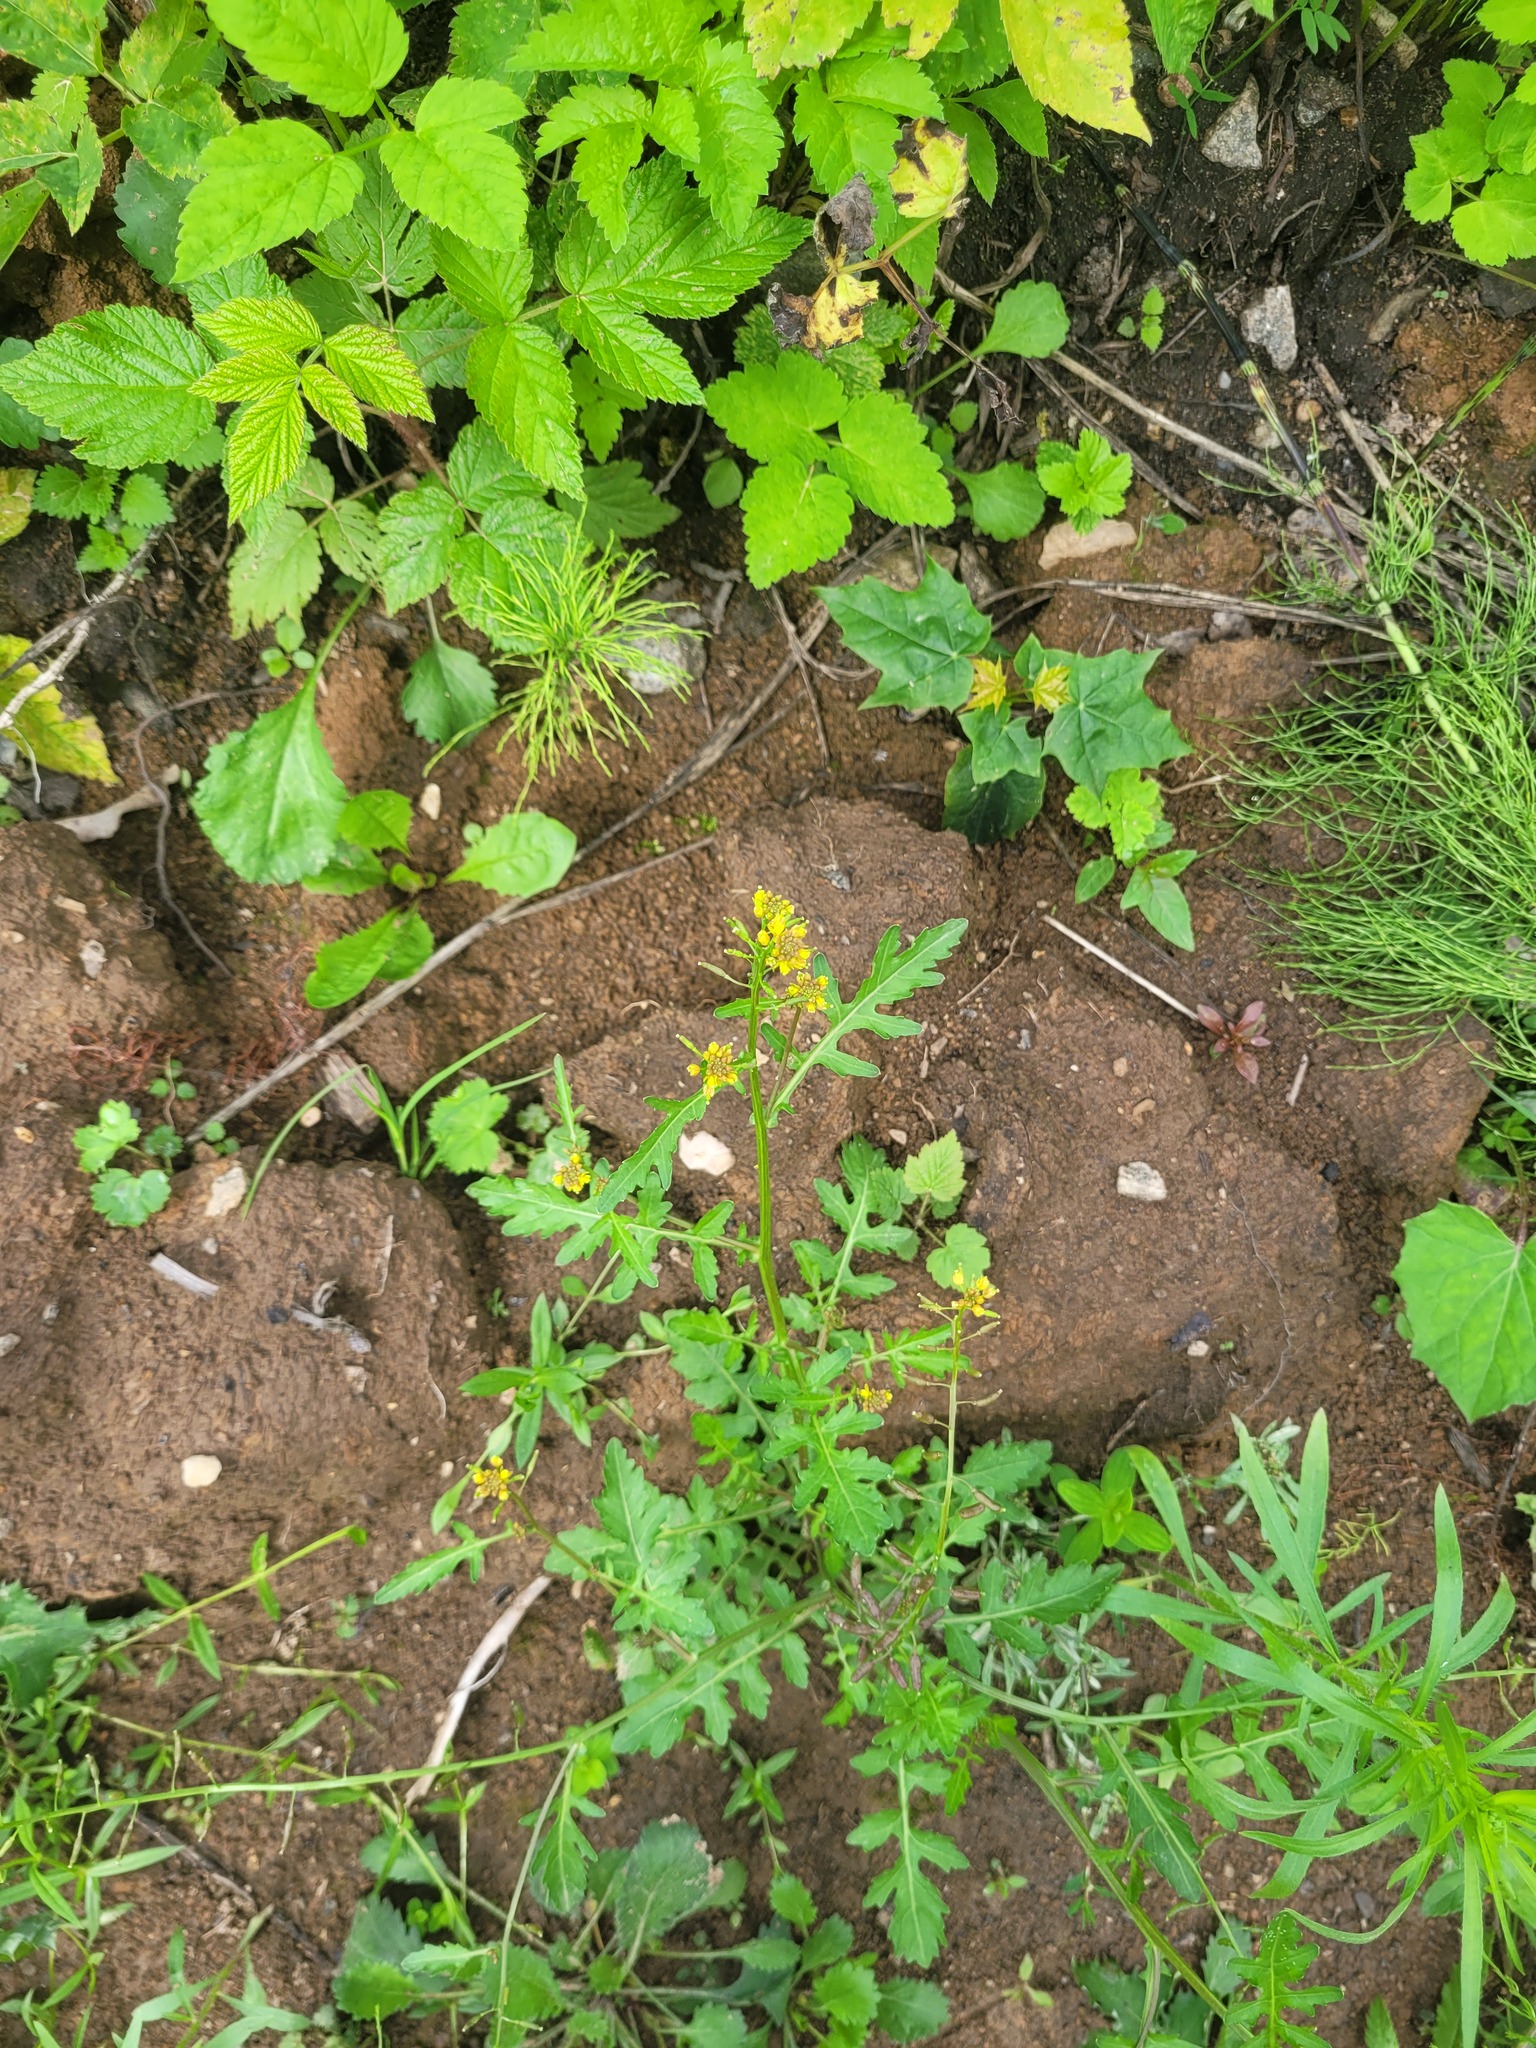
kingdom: Plantae
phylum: Tracheophyta
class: Magnoliopsida
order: Brassicales
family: Brassicaceae
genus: Rorippa
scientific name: Rorippa palustris
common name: Marsh yellow-cress
